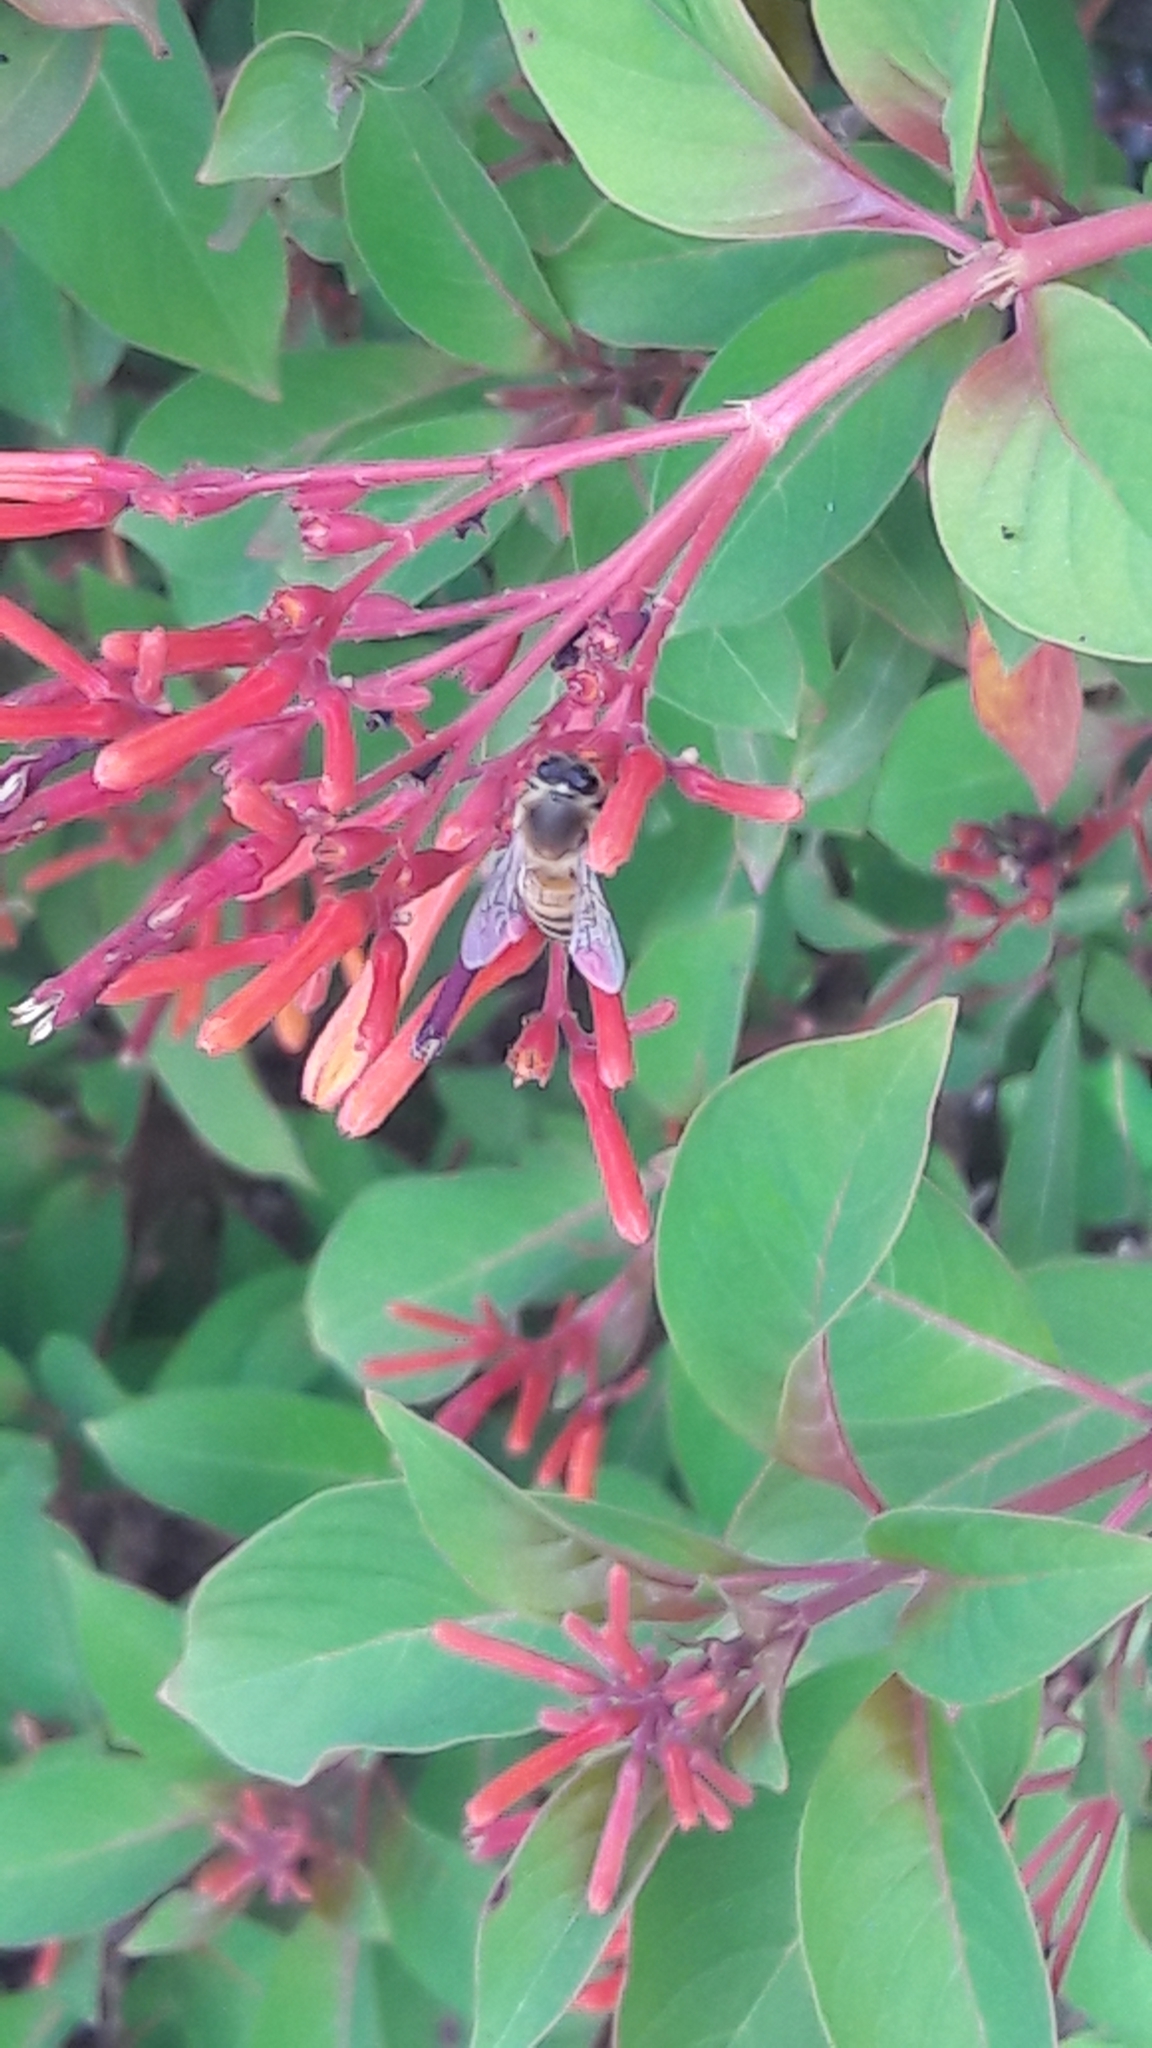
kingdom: Animalia
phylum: Arthropoda
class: Insecta
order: Hymenoptera
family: Apidae
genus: Apis
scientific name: Apis mellifera
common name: Honey bee
